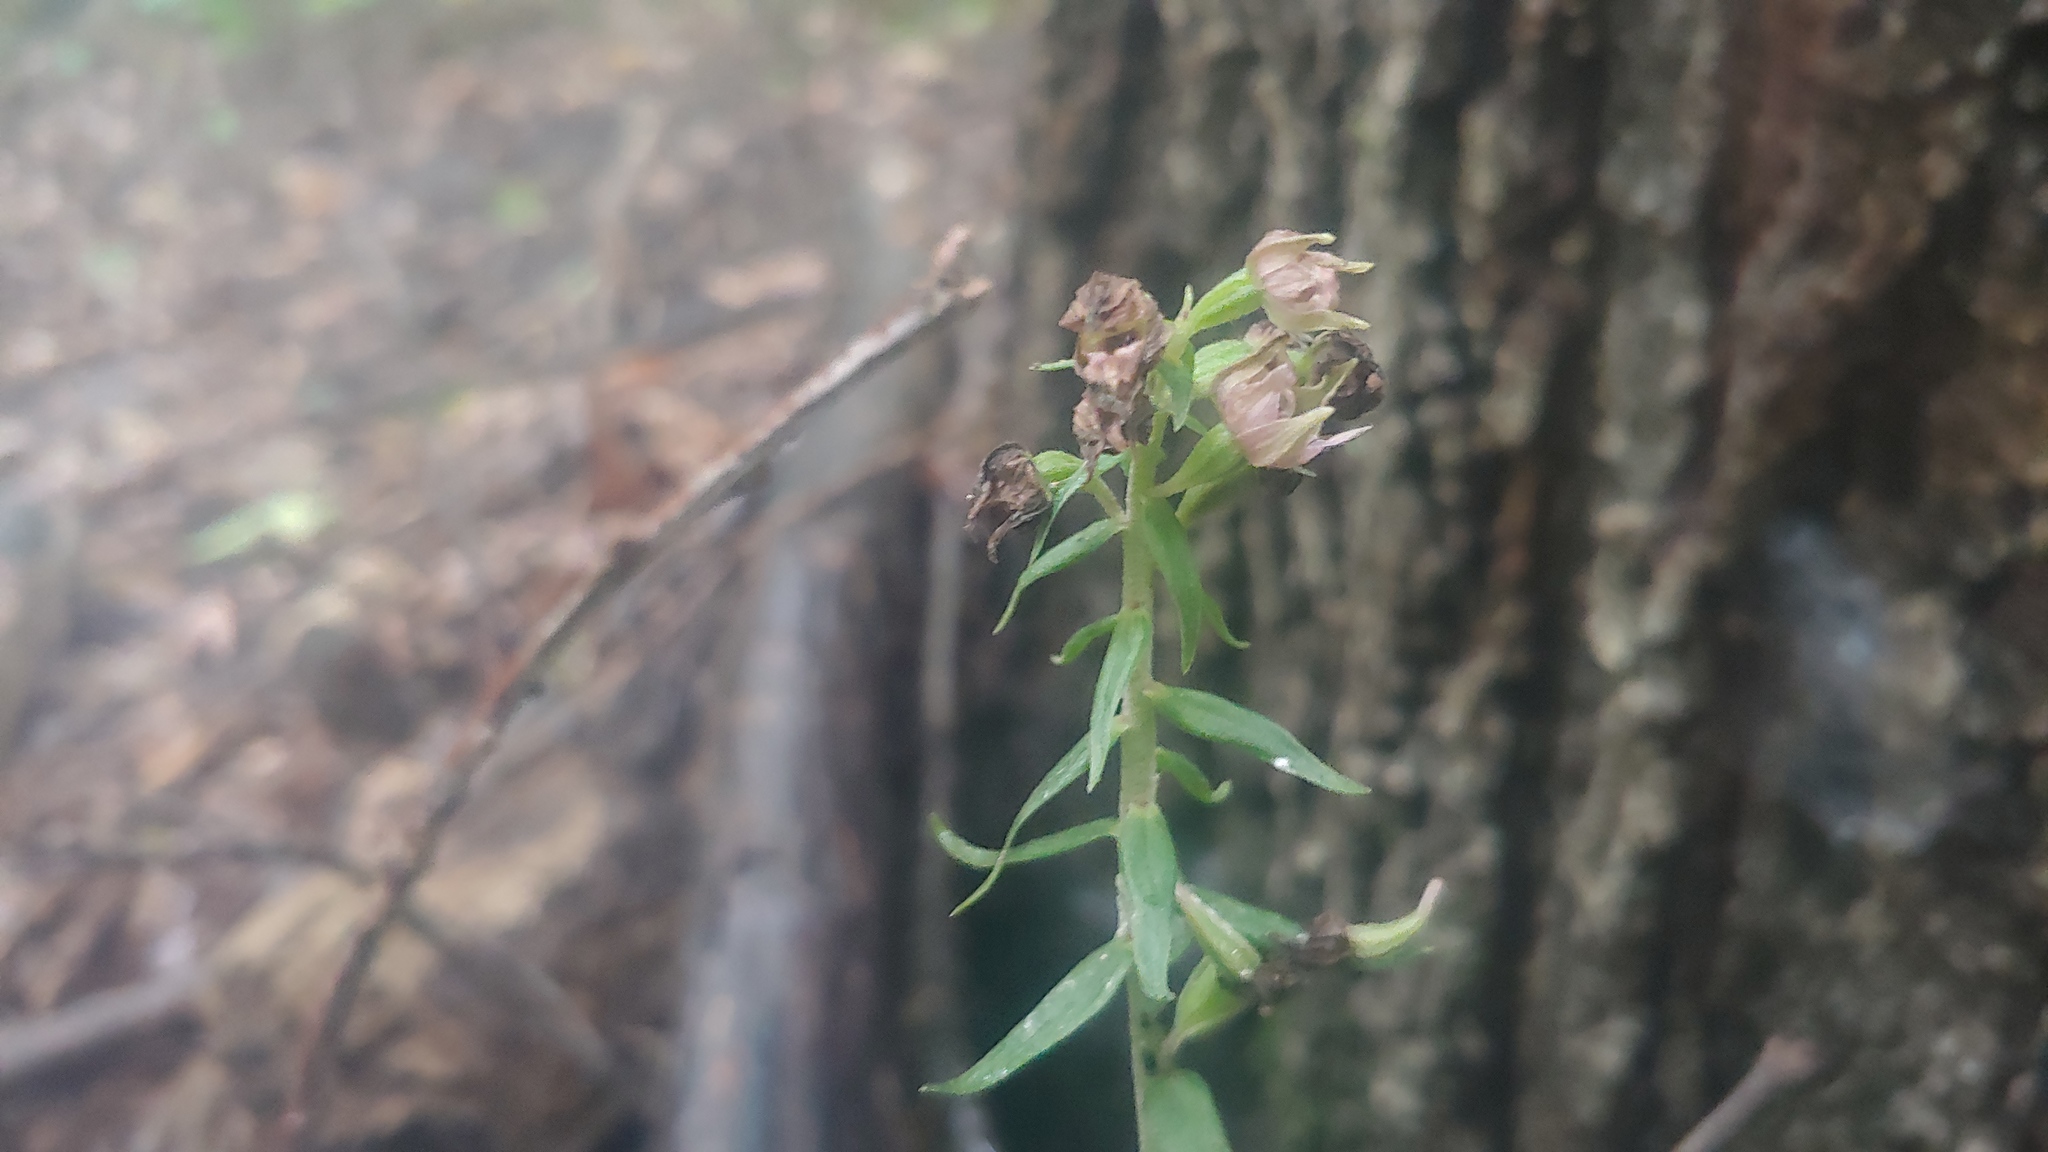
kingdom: Plantae
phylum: Tracheophyta
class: Liliopsida
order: Asparagales
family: Orchidaceae
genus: Epipactis
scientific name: Epipactis helleborine
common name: Broad-leaved helleborine
